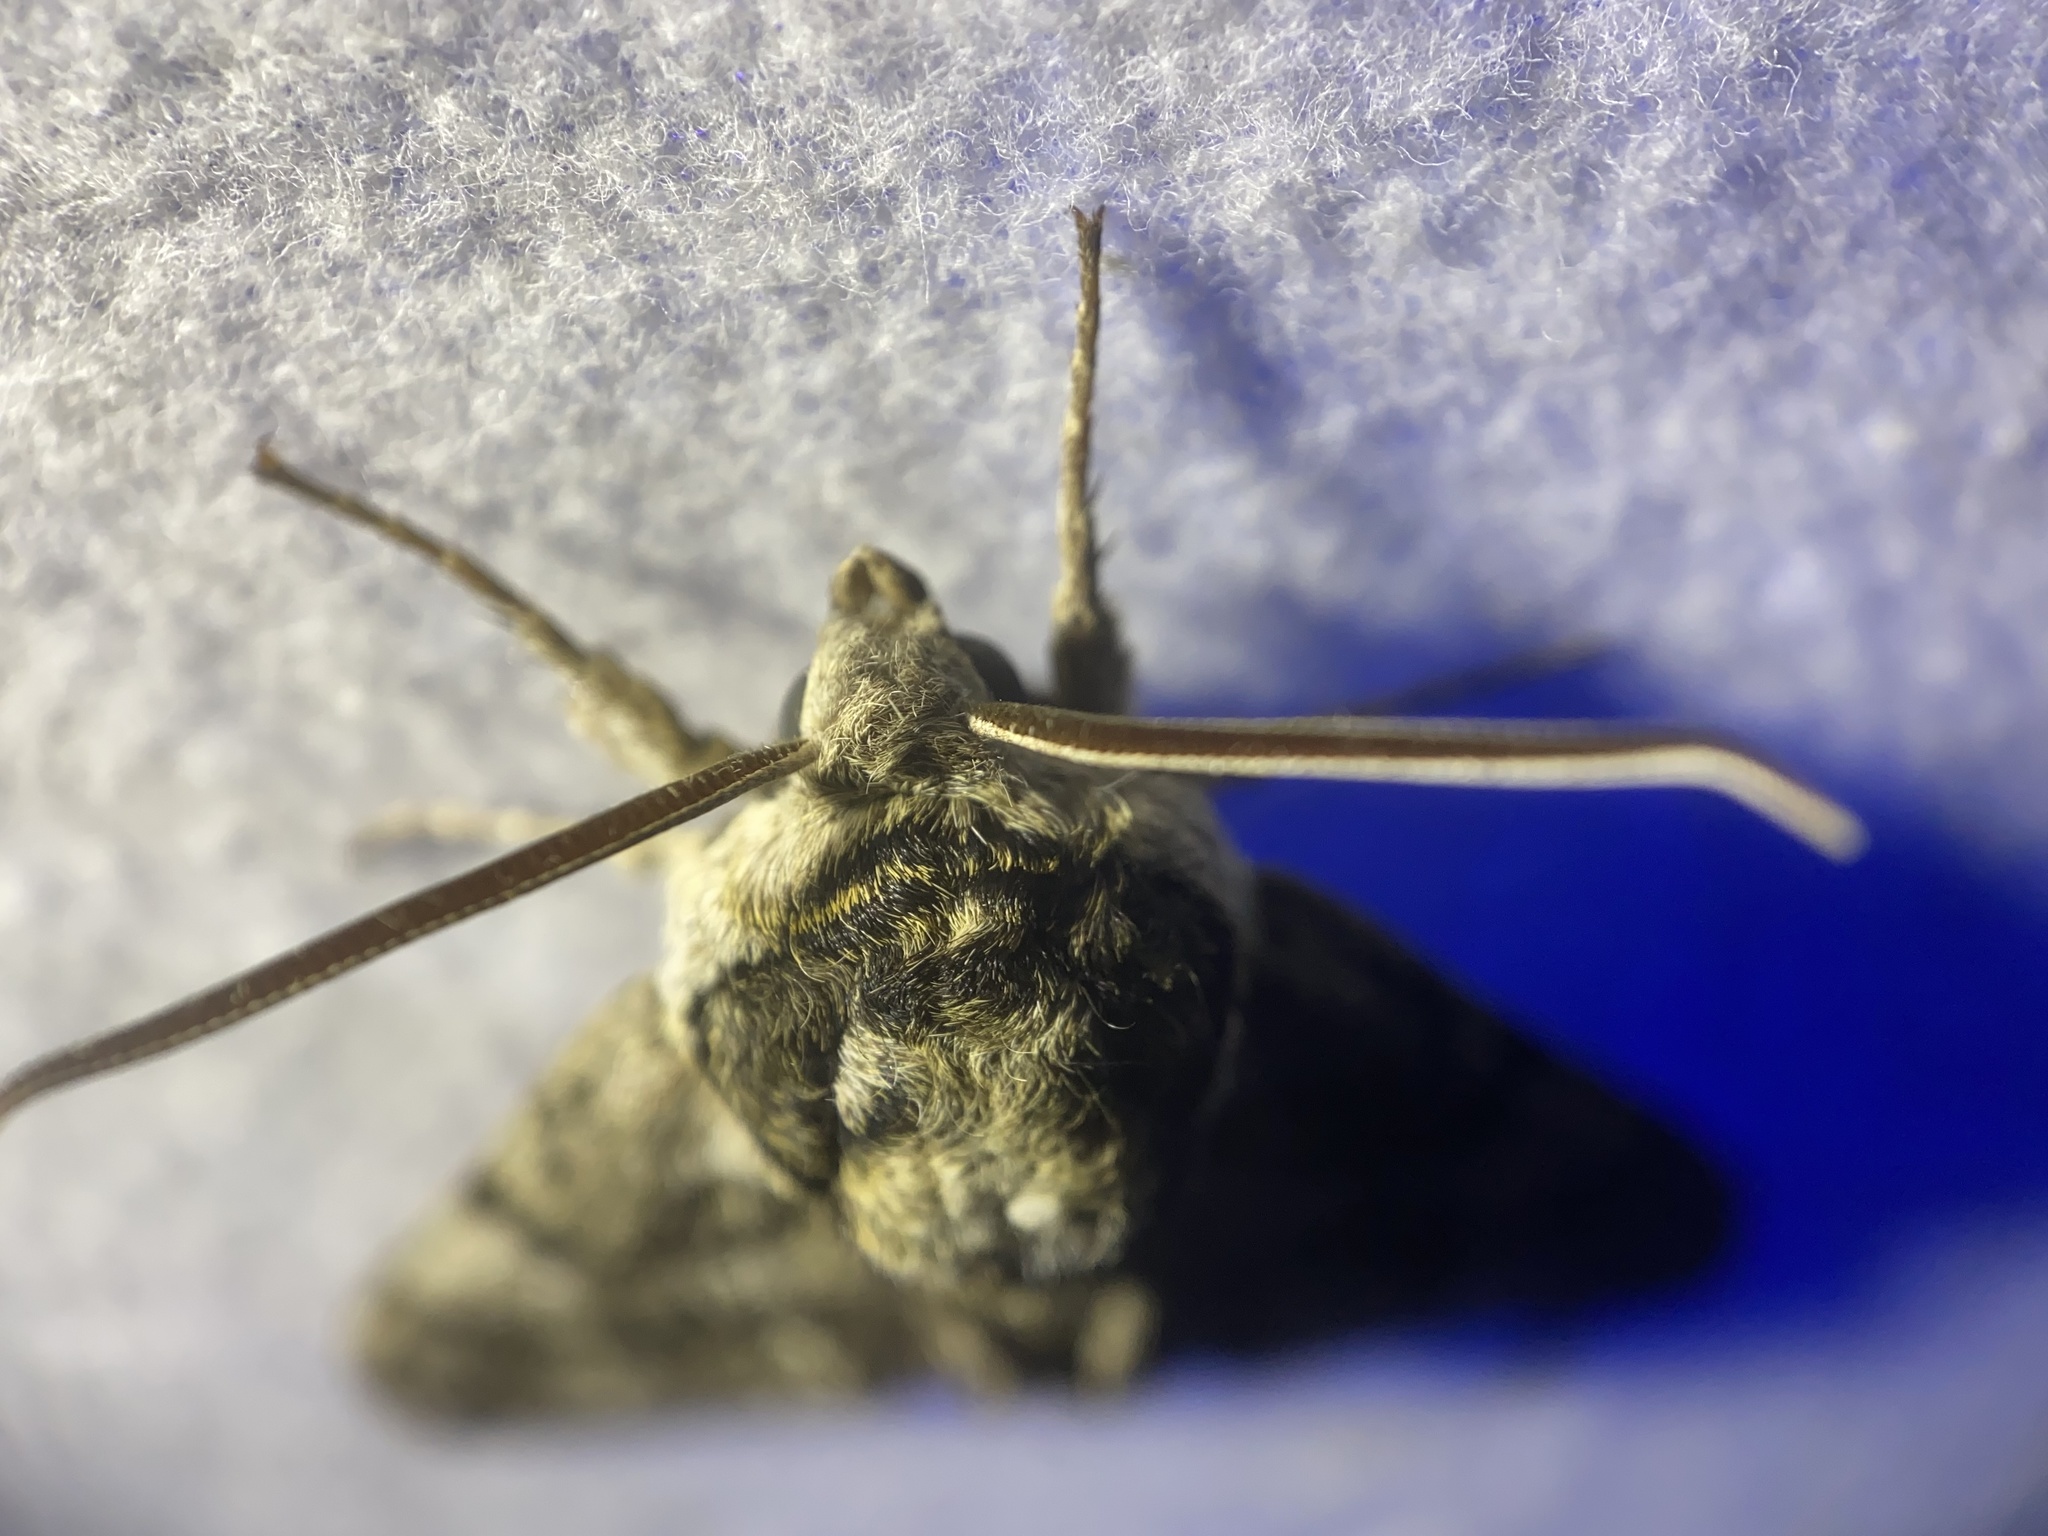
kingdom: Animalia
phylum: Arthropoda
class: Insecta
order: Lepidoptera
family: Sphingidae
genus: Ceratomia
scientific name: Ceratomia undulosa
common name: Waved sphinx
